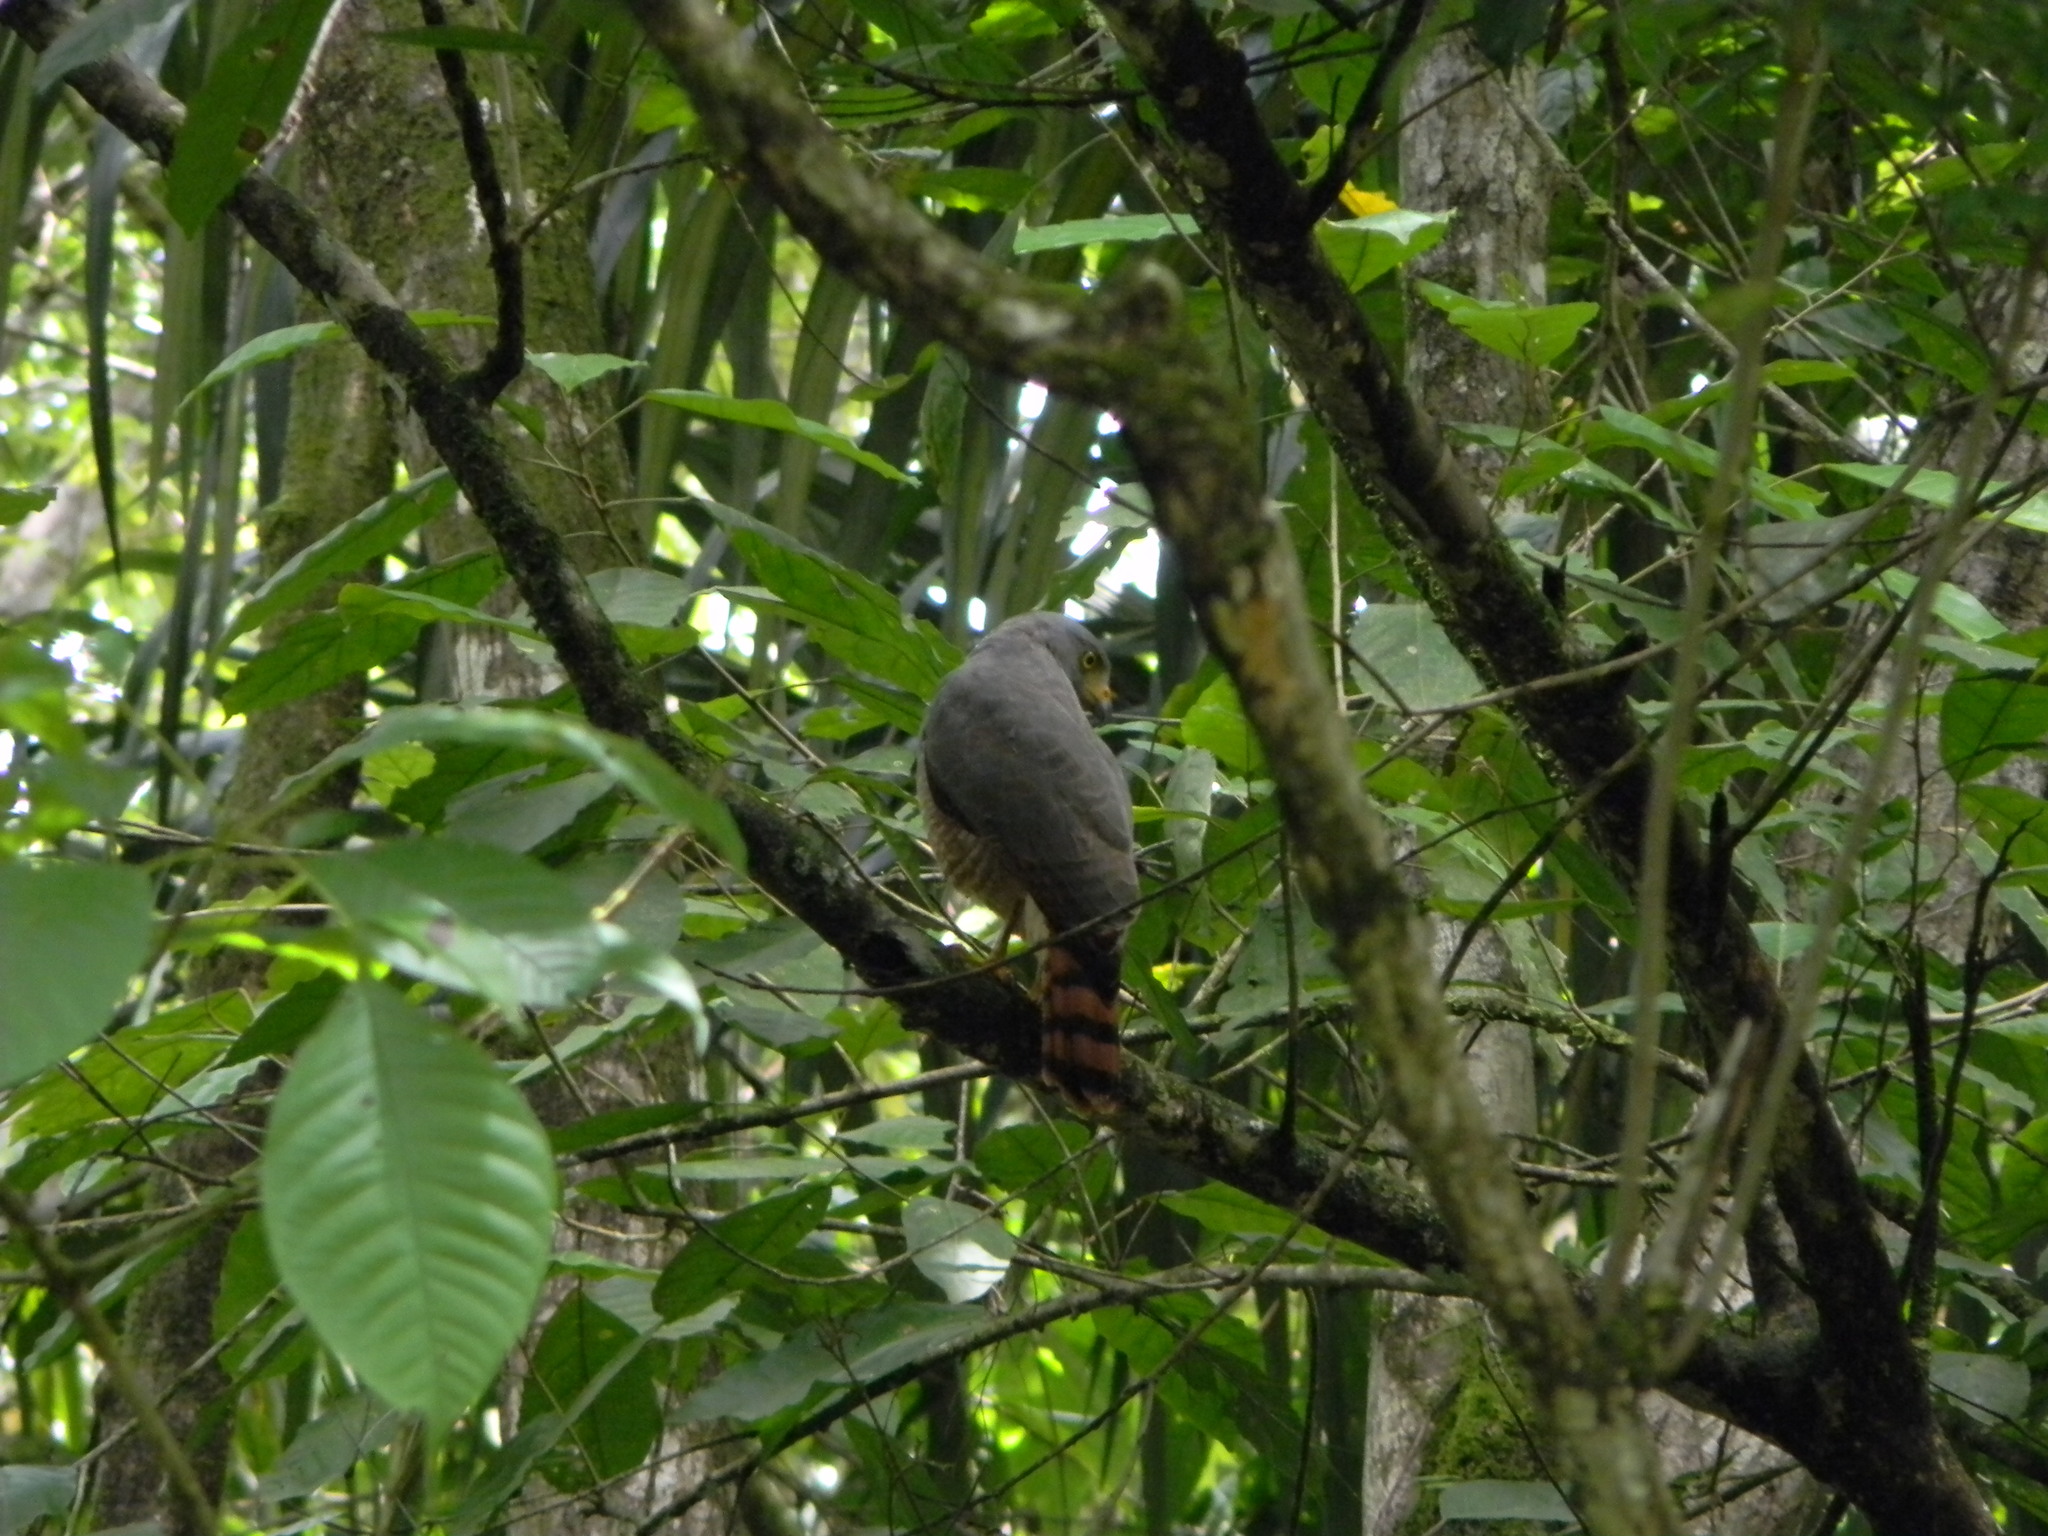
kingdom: Animalia
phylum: Chordata
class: Aves
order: Accipitriformes
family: Accipitridae
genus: Rupornis
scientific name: Rupornis magnirostris
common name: Roadside hawk
